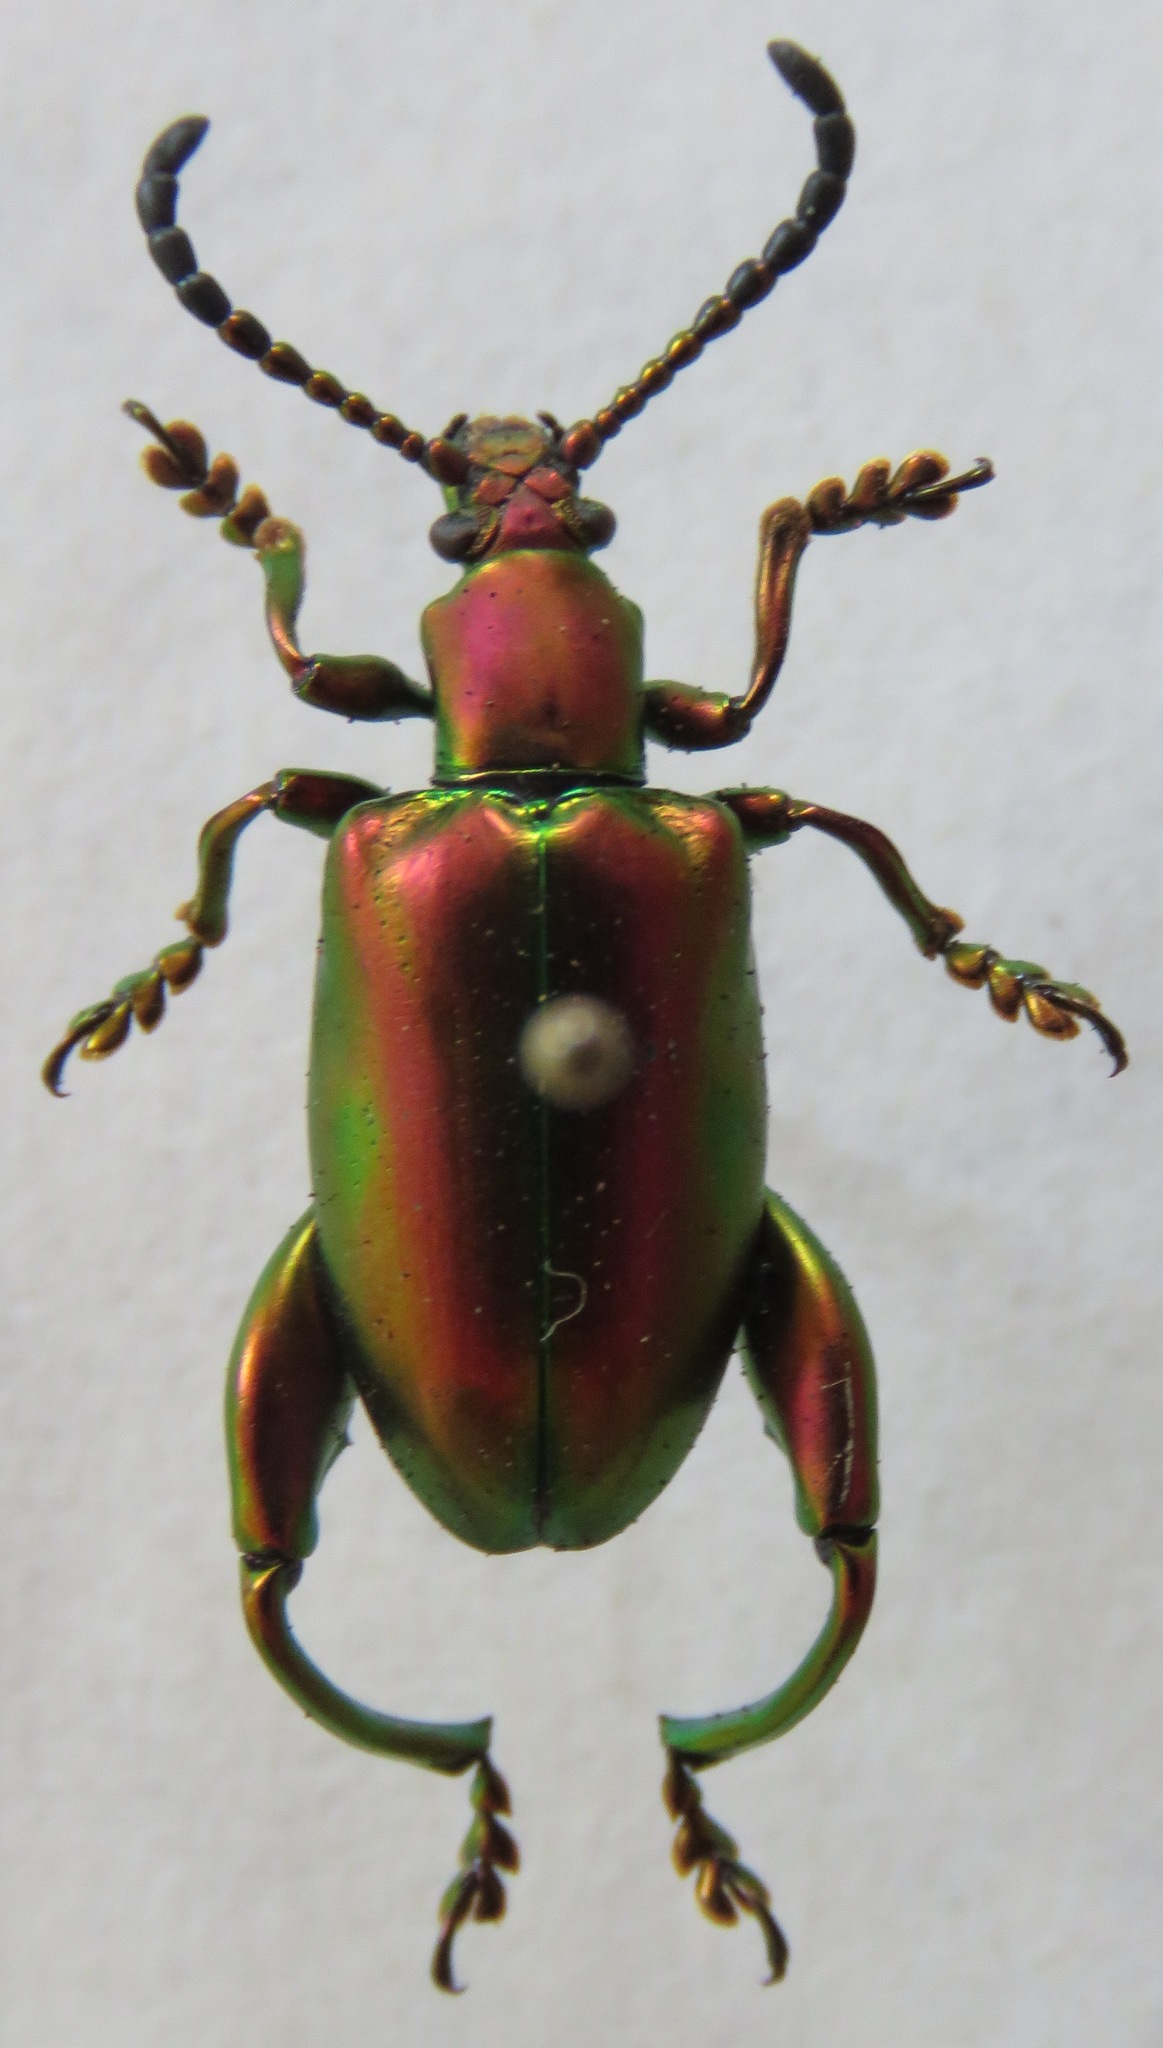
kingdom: Animalia
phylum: Arthropoda
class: Insecta
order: Coleoptera
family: Chrysomelidae
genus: Sagra
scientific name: Sagra femorata
